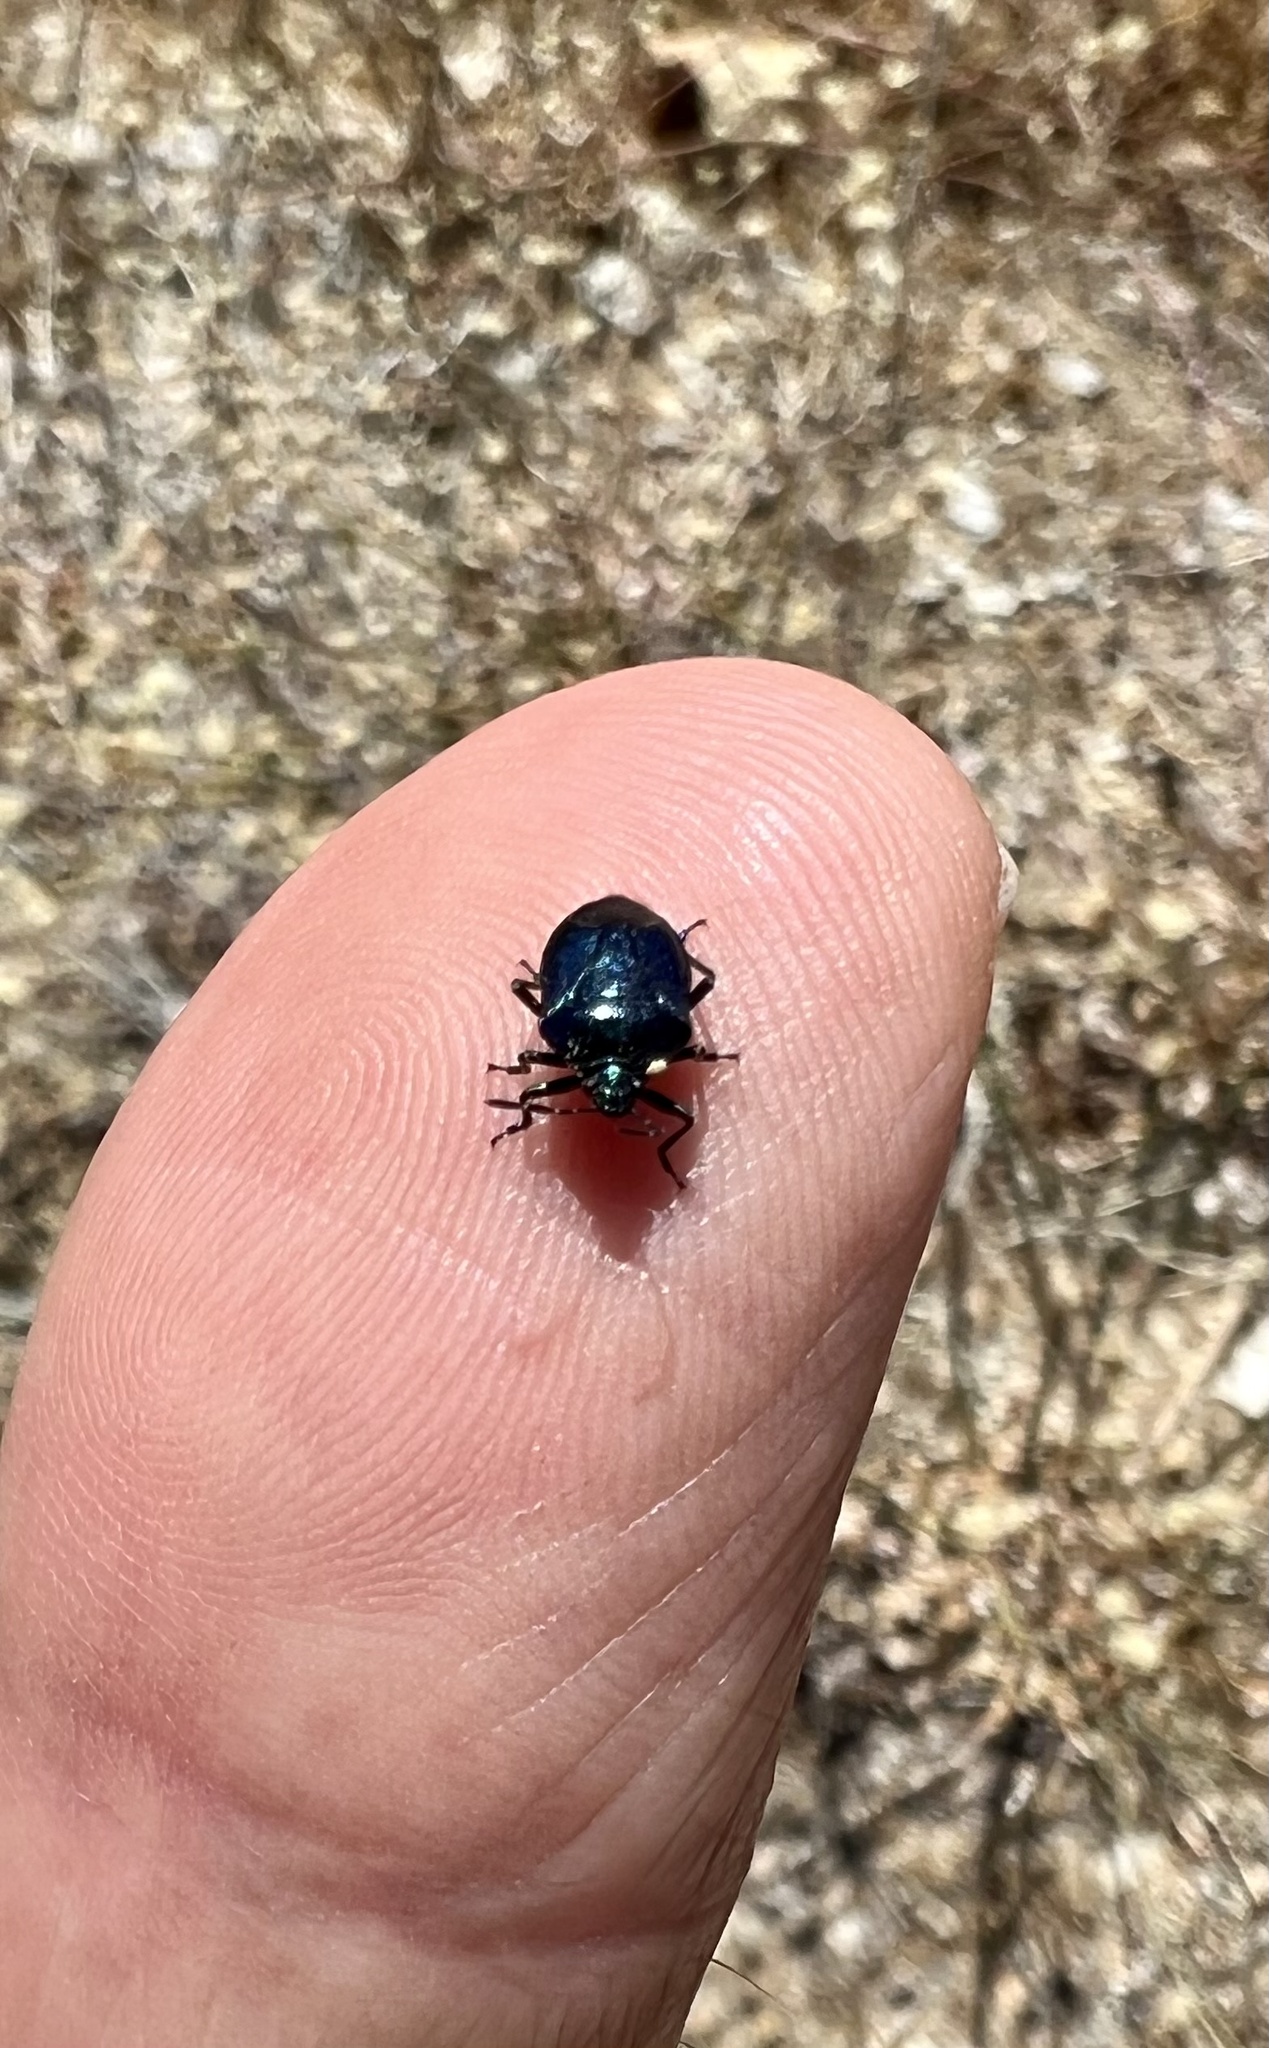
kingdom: Animalia
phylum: Arthropoda
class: Insecta
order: Hemiptera
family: Pentatomidae
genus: Zicrona
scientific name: Zicrona
